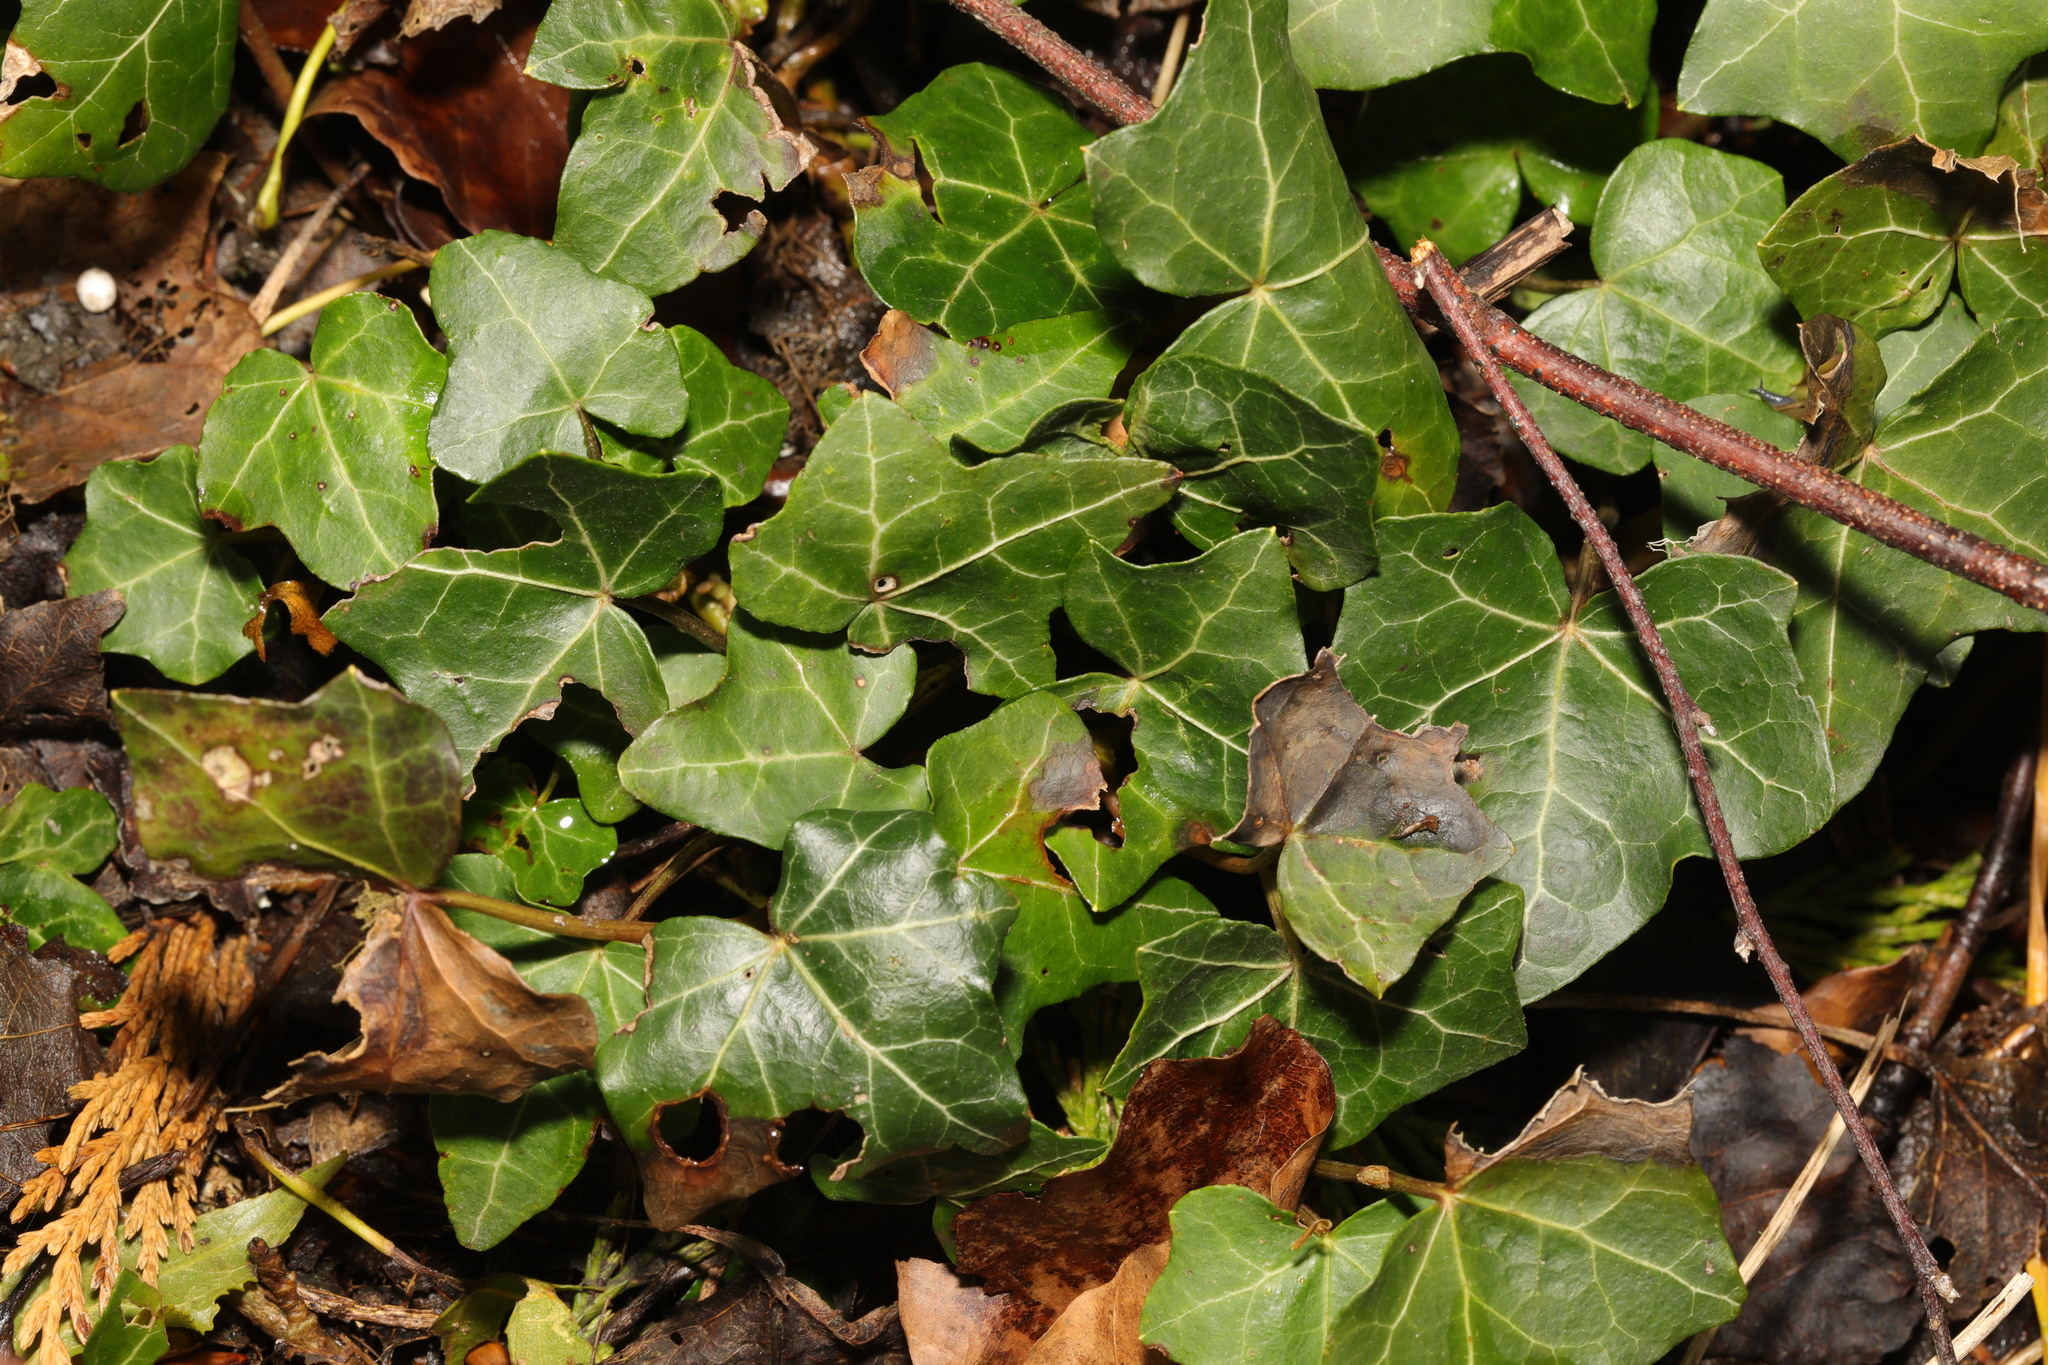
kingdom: Plantae
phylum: Tracheophyta
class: Magnoliopsida
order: Apiales
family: Araliaceae
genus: Hedera
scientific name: Hedera helix
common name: Ivy
